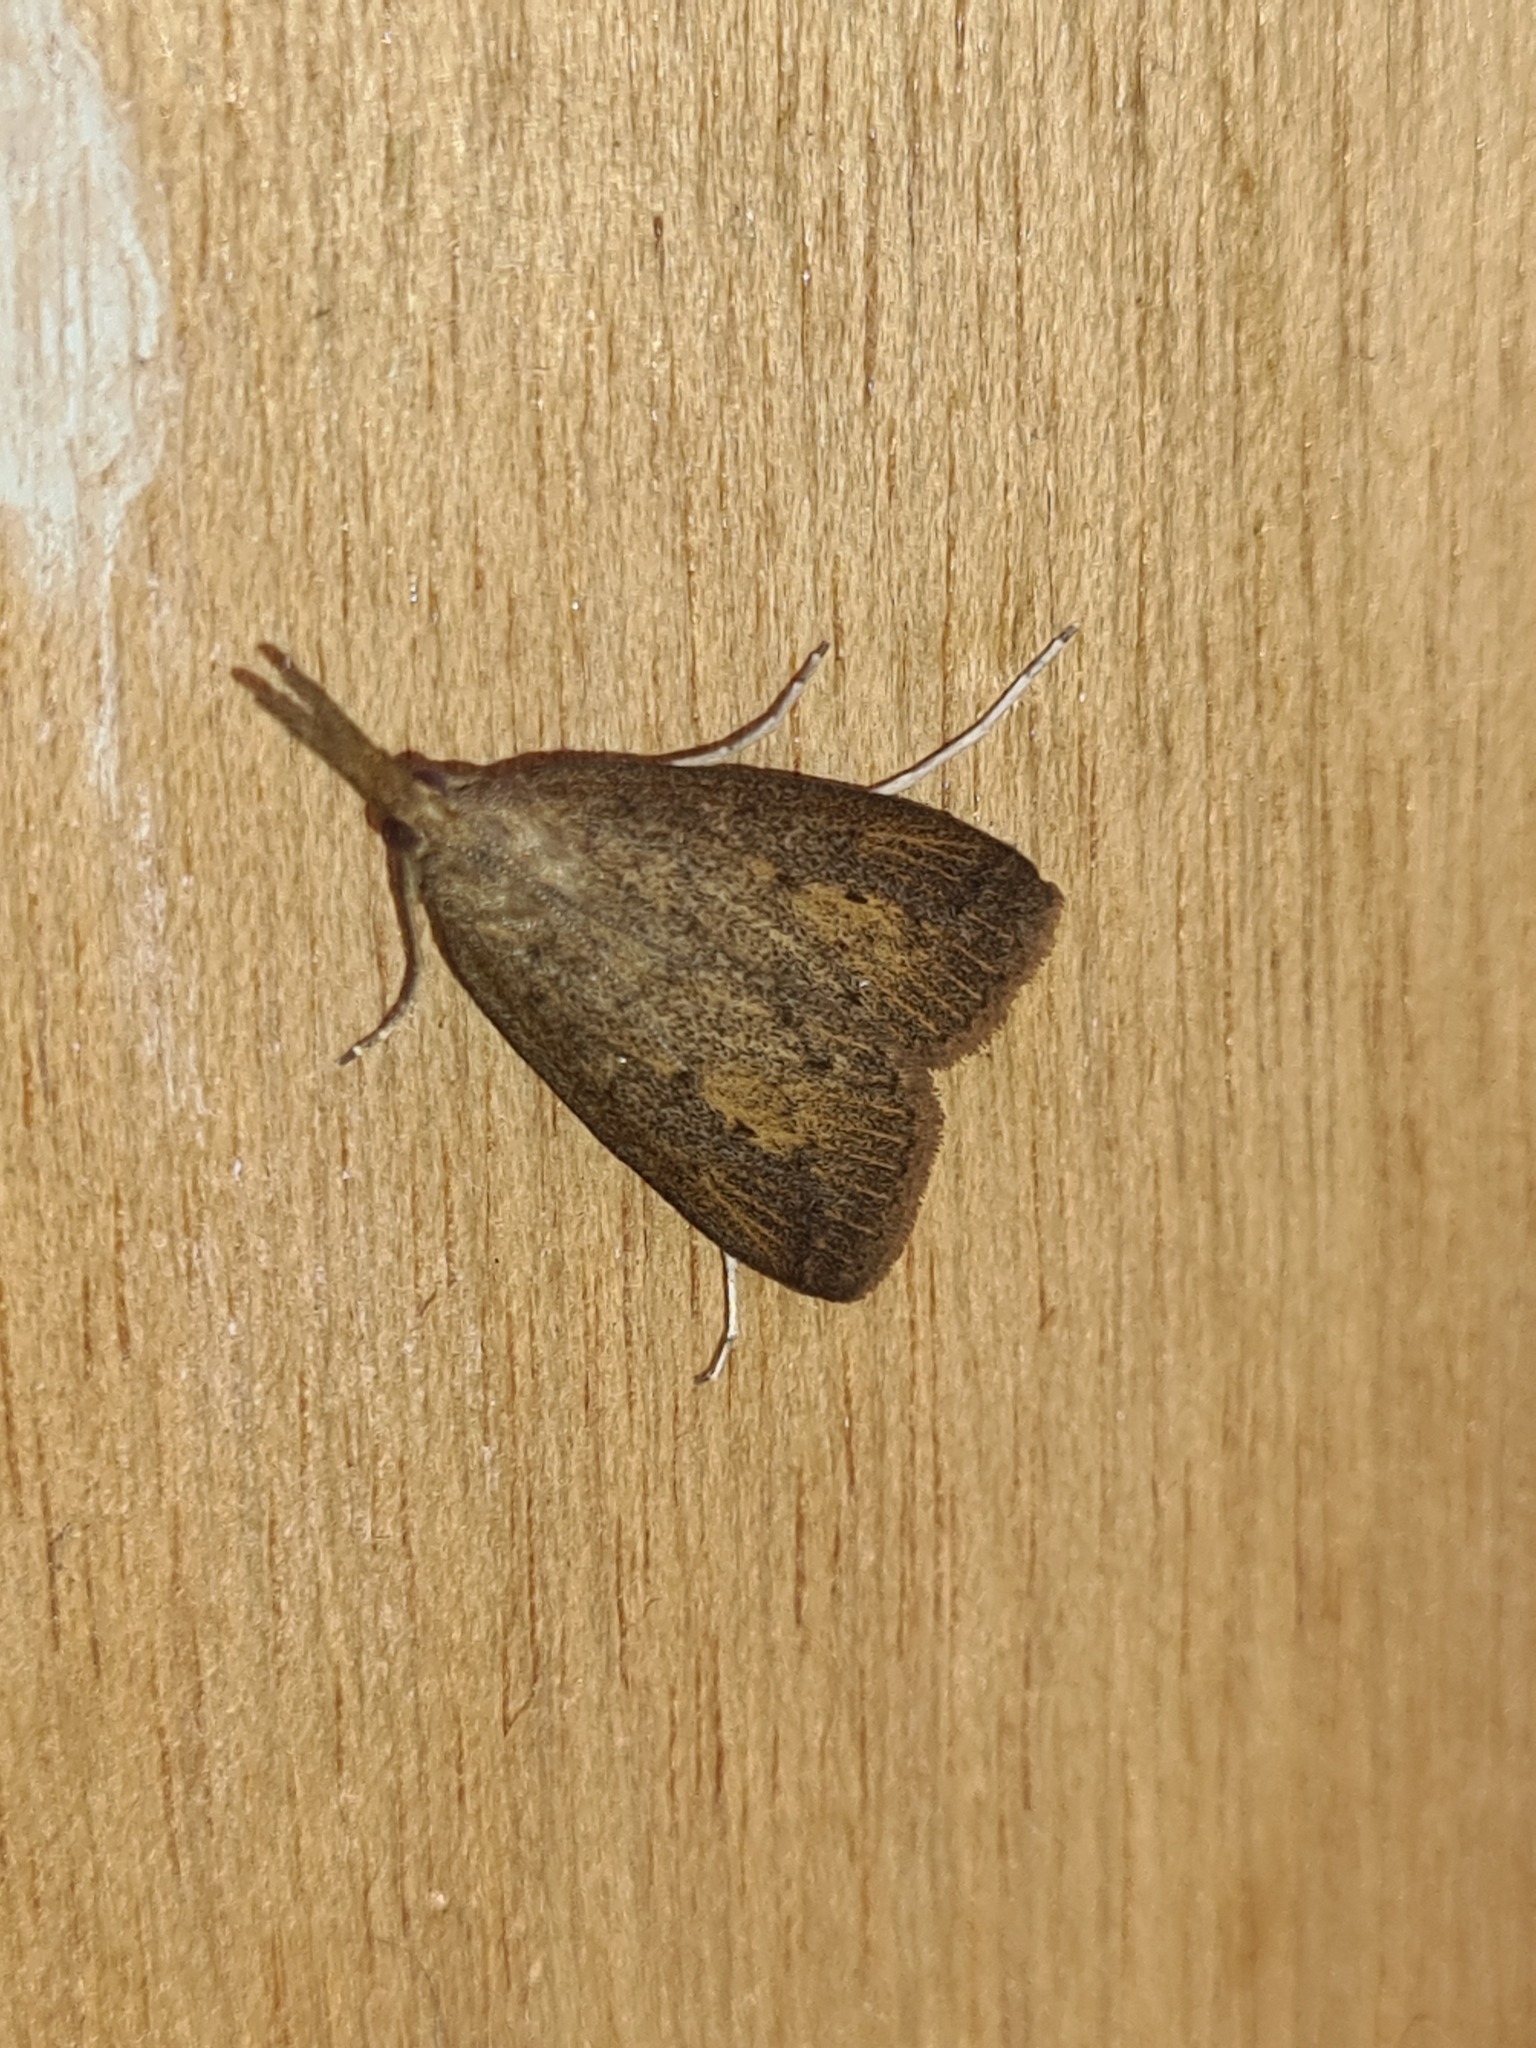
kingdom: Animalia
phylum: Arthropoda
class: Insecta
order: Lepidoptera
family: Crambidae
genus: Schoenobius
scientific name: Schoenobius gigantella
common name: Giant water-veneer
